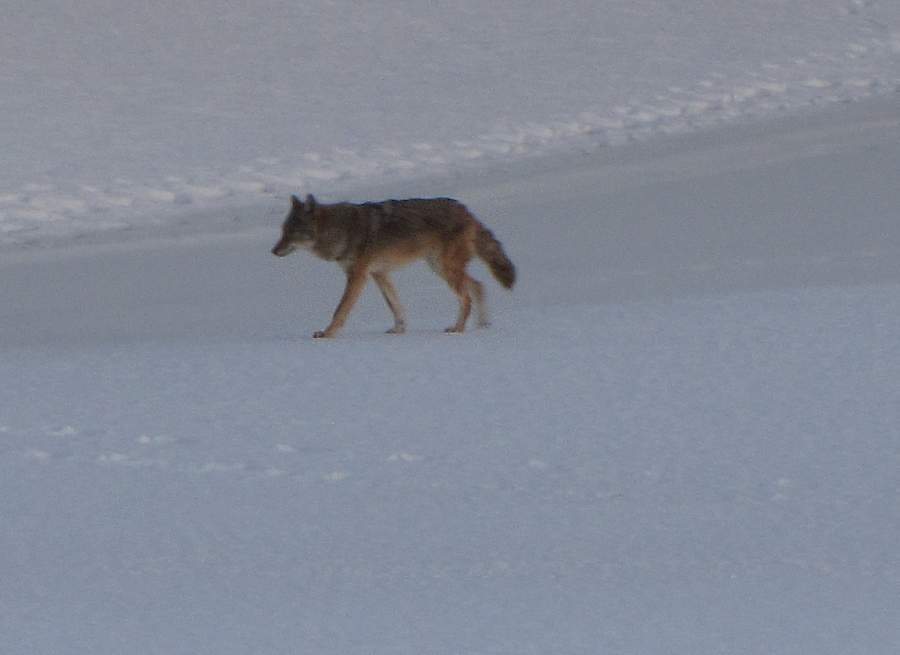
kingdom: Animalia
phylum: Chordata
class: Mammalia
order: Carnivora
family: Canidae
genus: Canis
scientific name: Canis latrans
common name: Coyote
